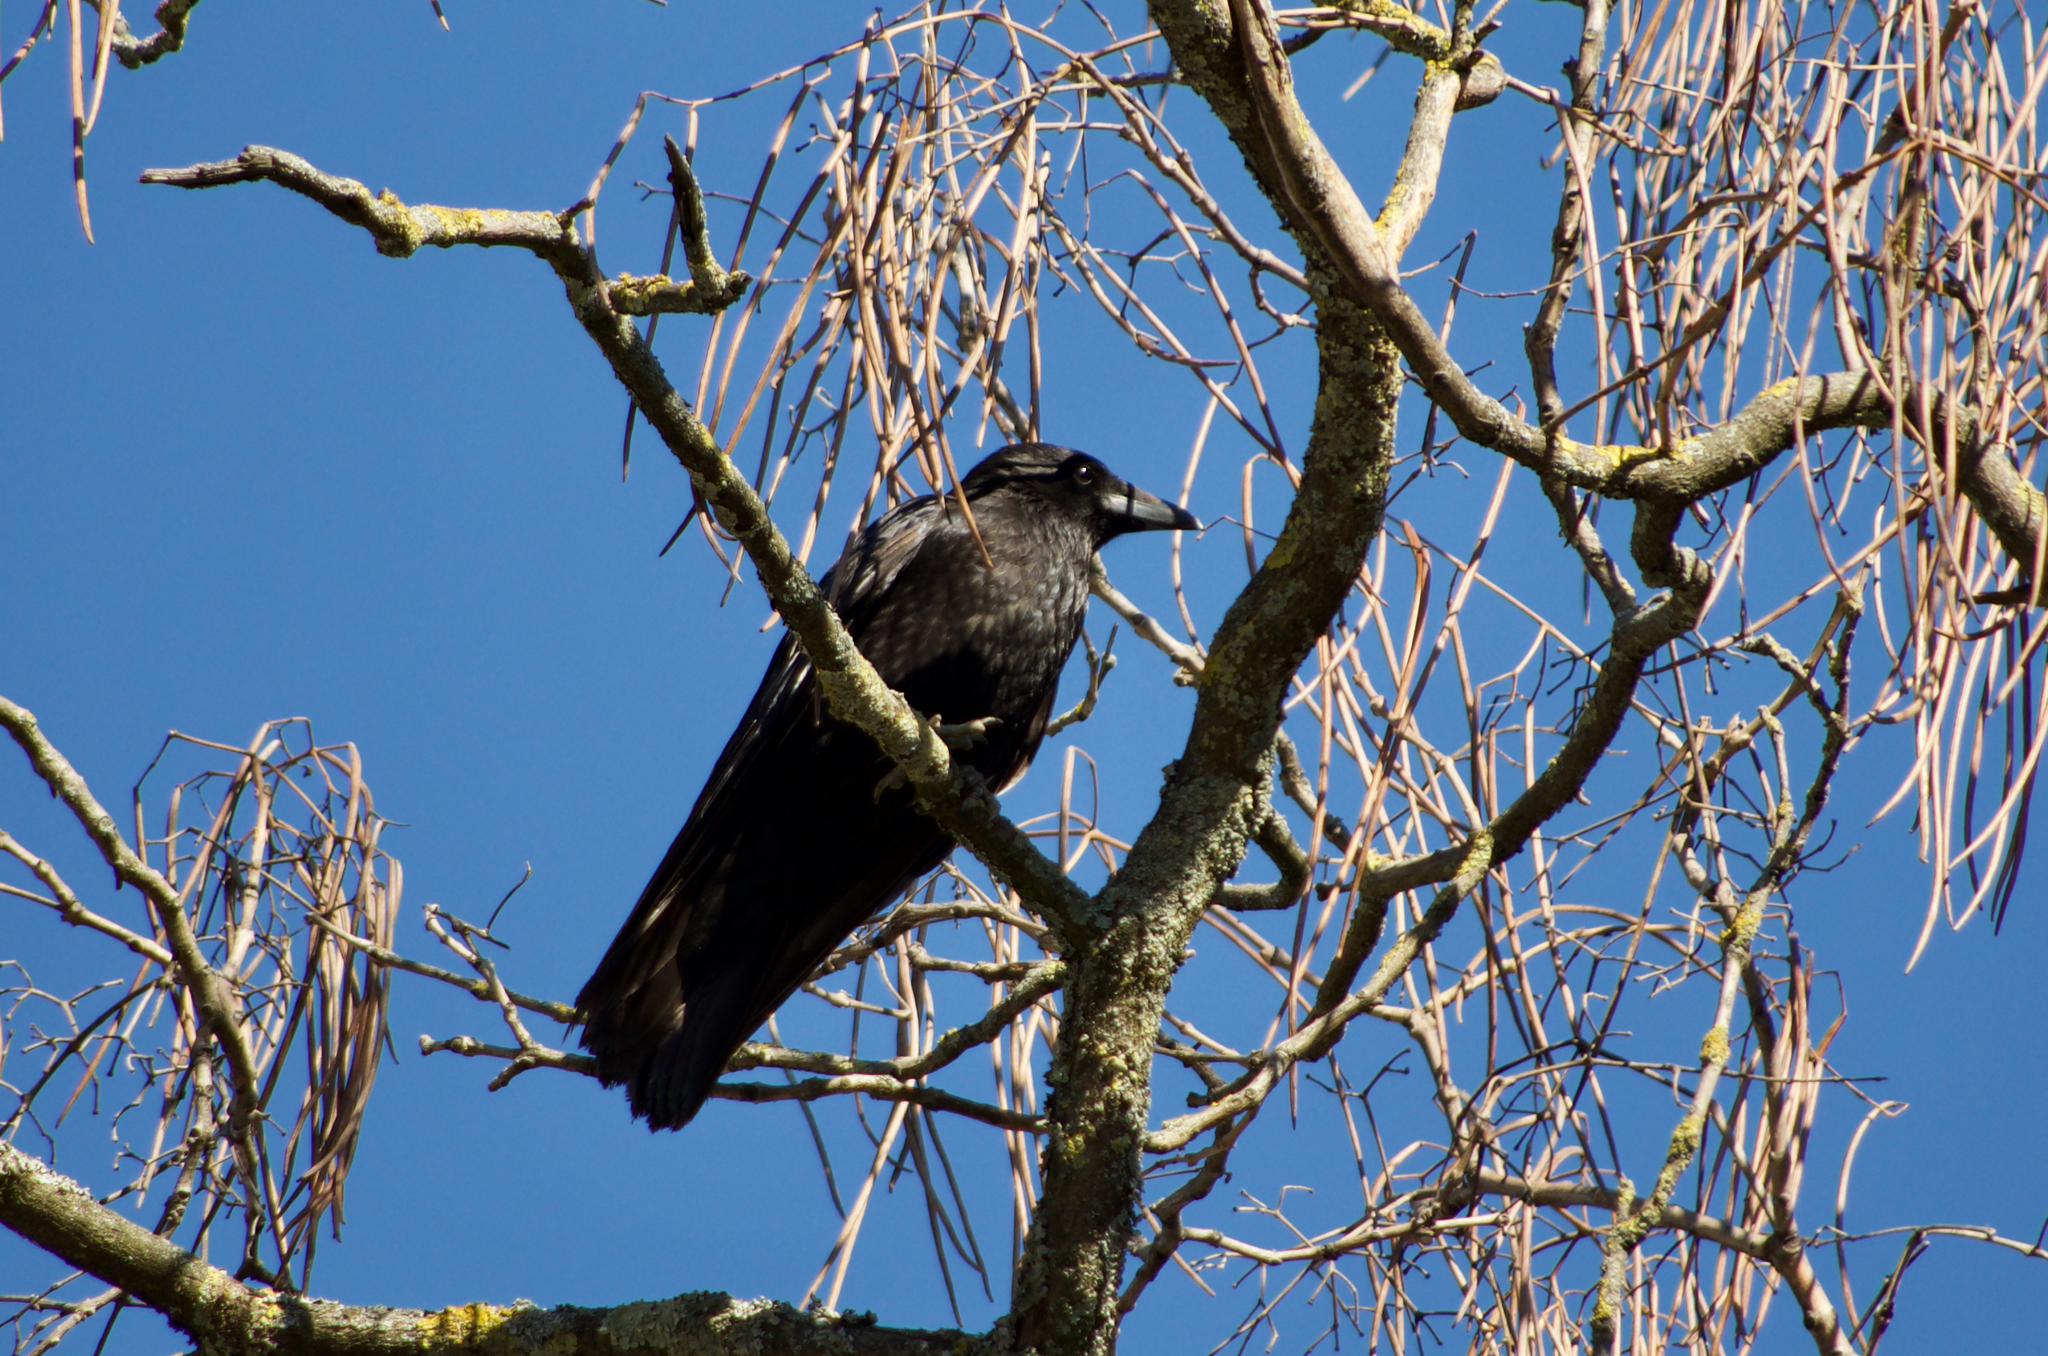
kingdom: Animalia
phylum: Chordata
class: Aves
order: Passeriformes
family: Corvidae
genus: Corvus
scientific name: Corvus corone
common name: Carrion crow
